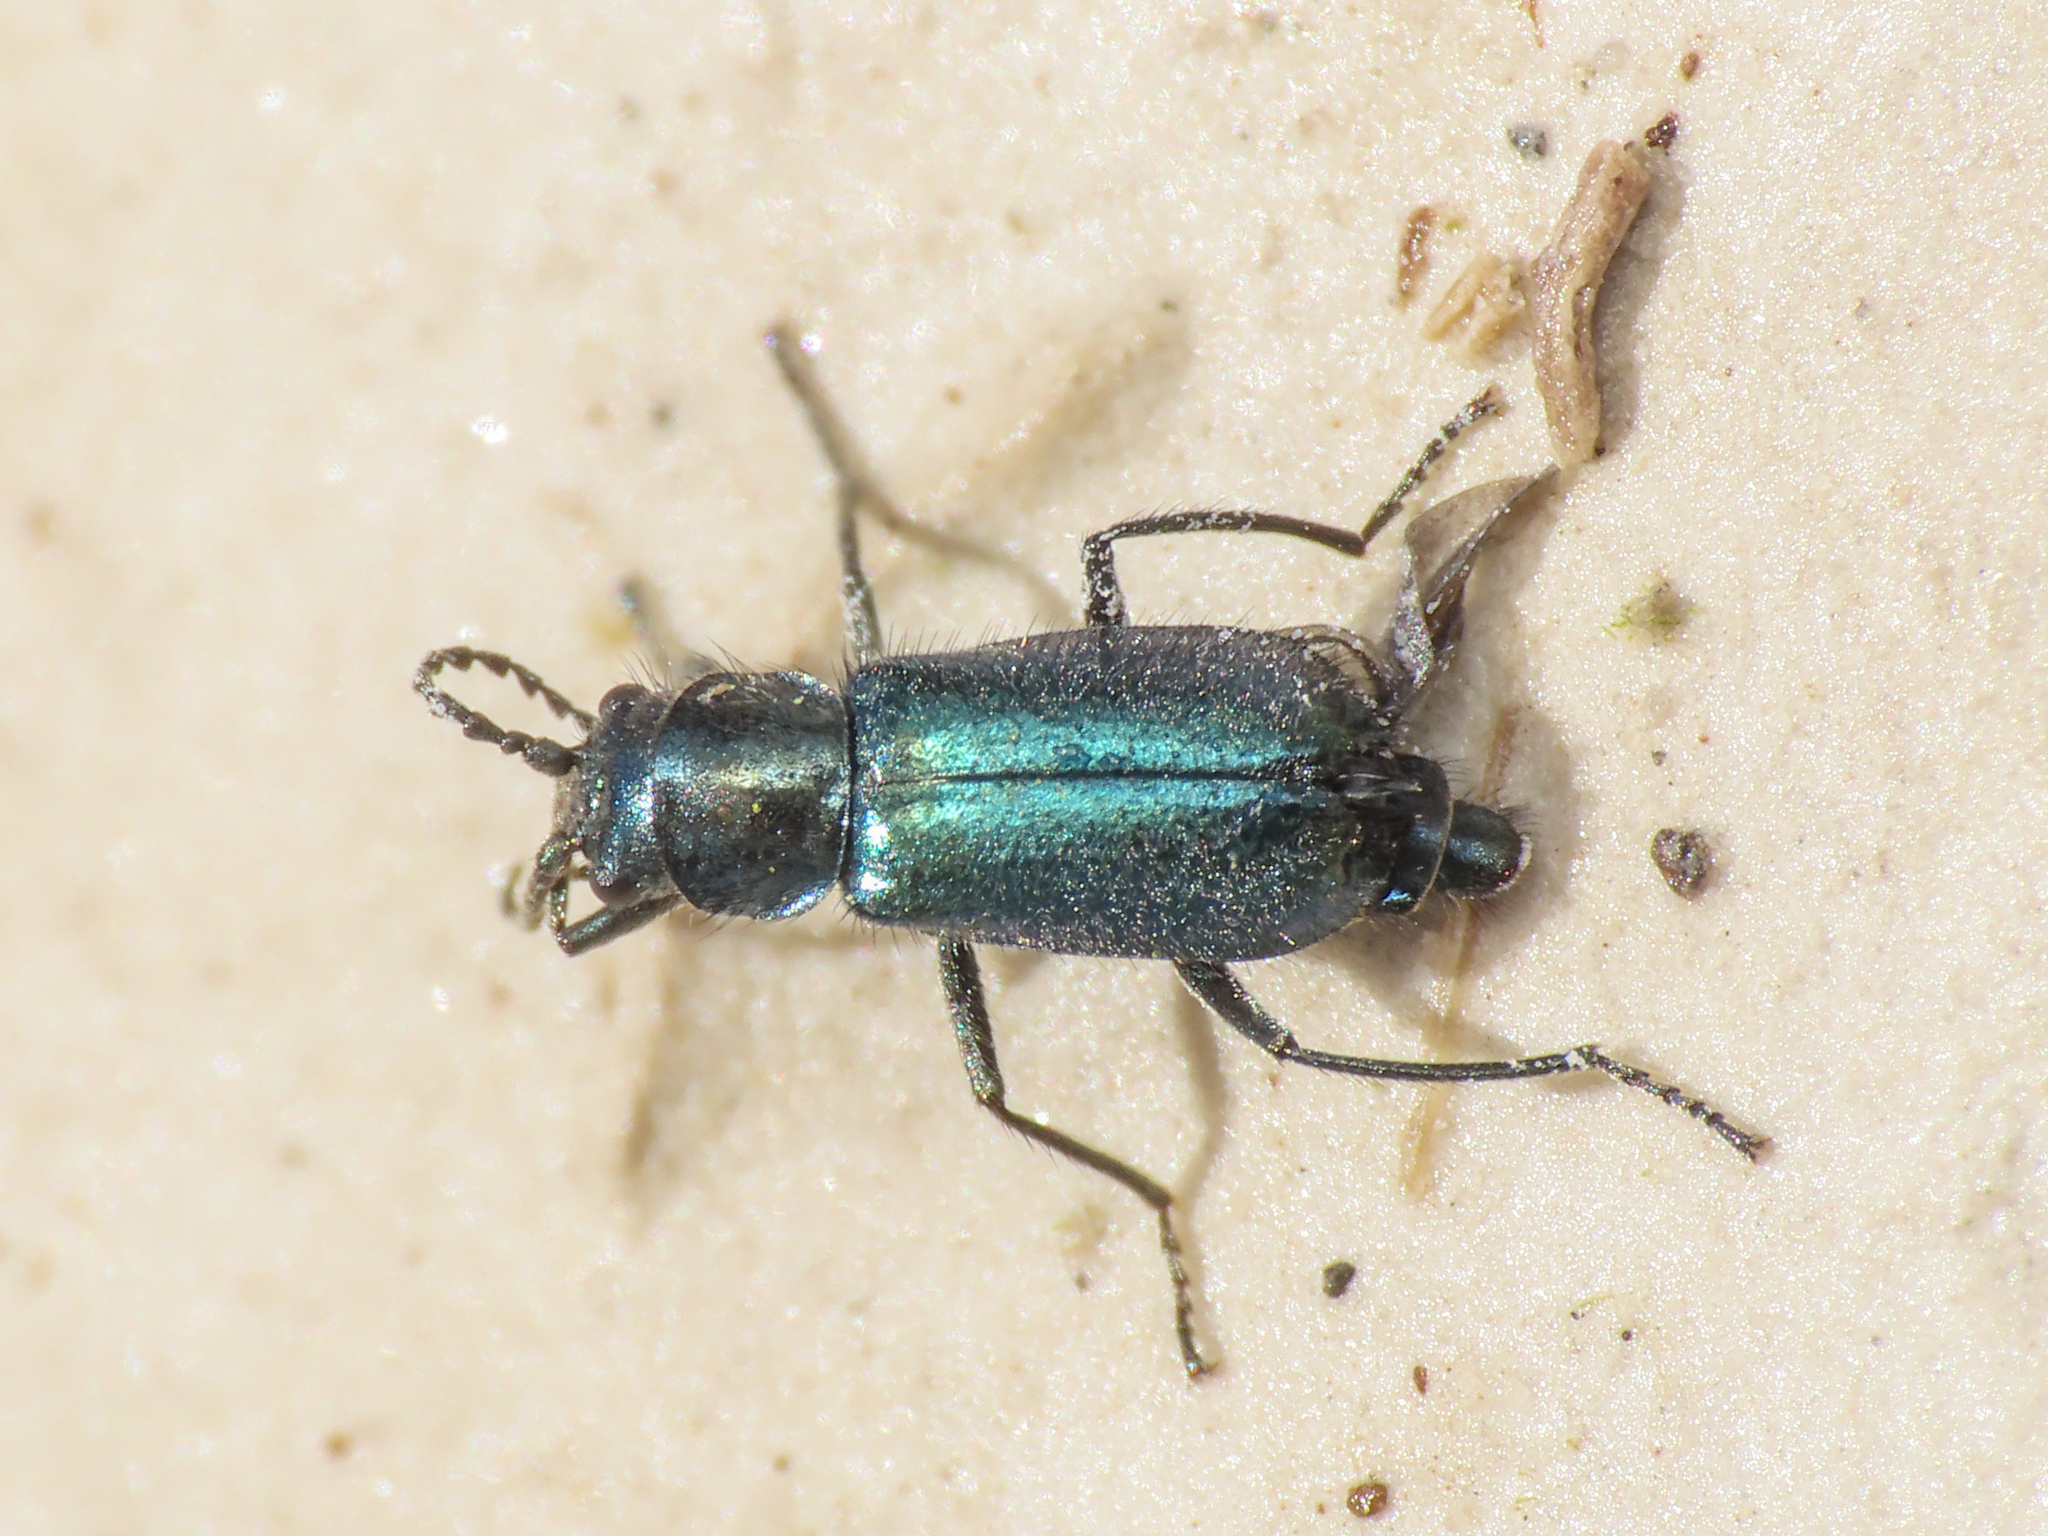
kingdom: Animalia
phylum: Arthropoda
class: Insecta
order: Coleoptera
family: Malachiidae
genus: Clanoptilus
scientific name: Clanoptilus affinis
